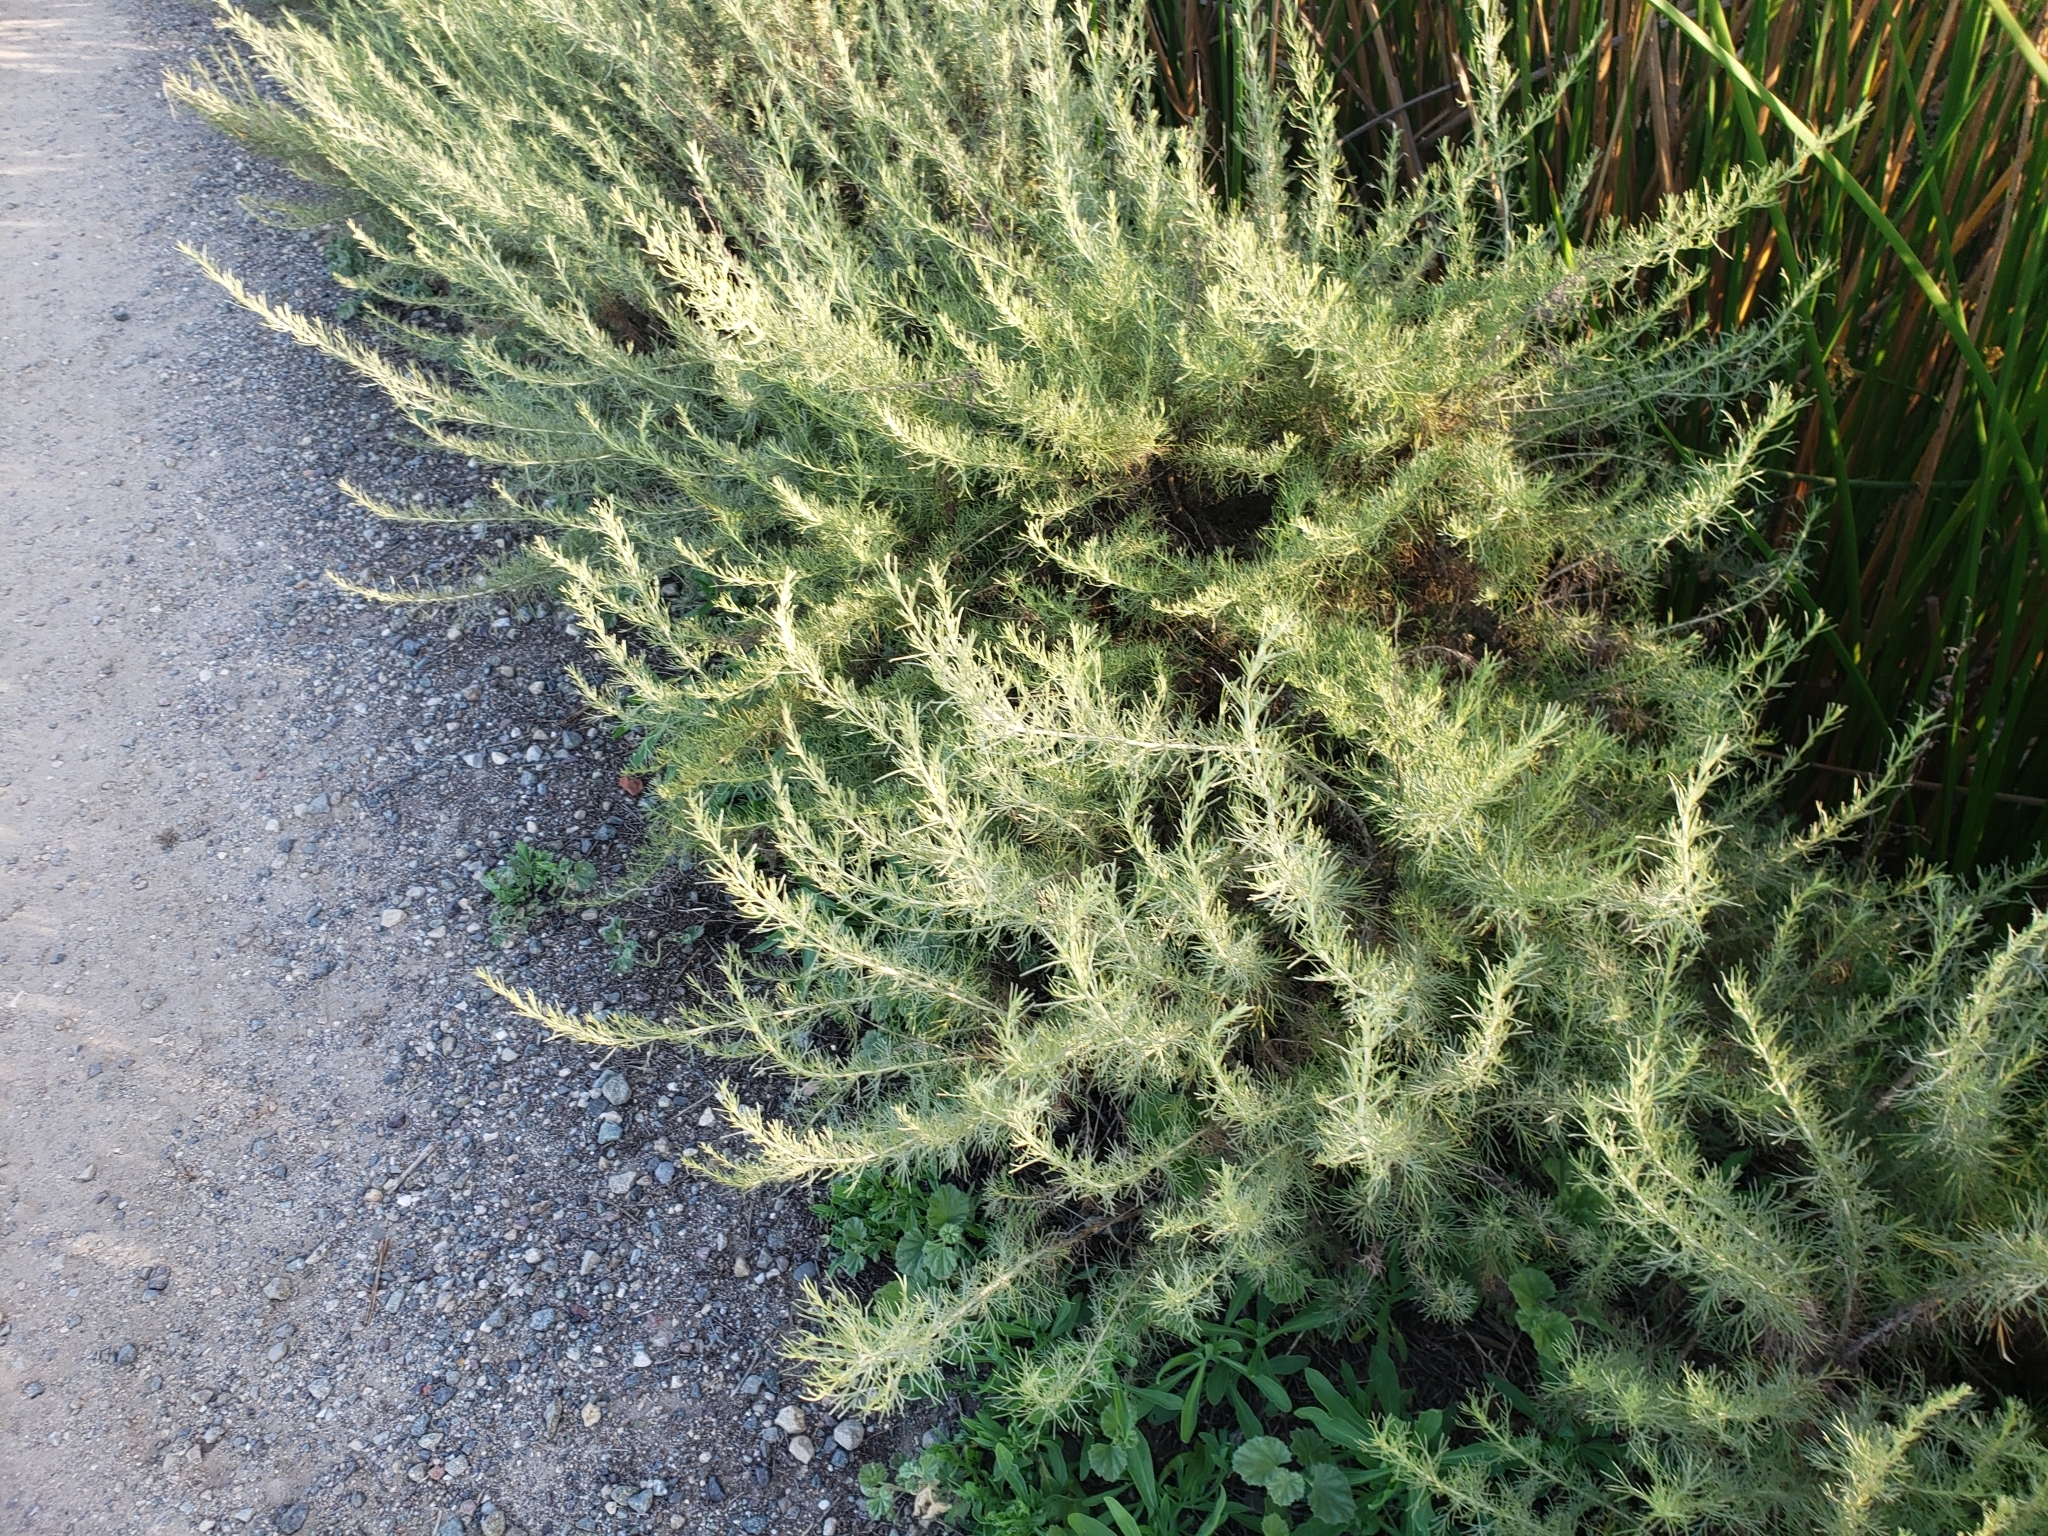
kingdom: Plantae
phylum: Tracheophyta
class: Magnoliopsida
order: Asterales
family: Asteraceae
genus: Artemisia
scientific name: Artemisia californica
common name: California sagebrush
